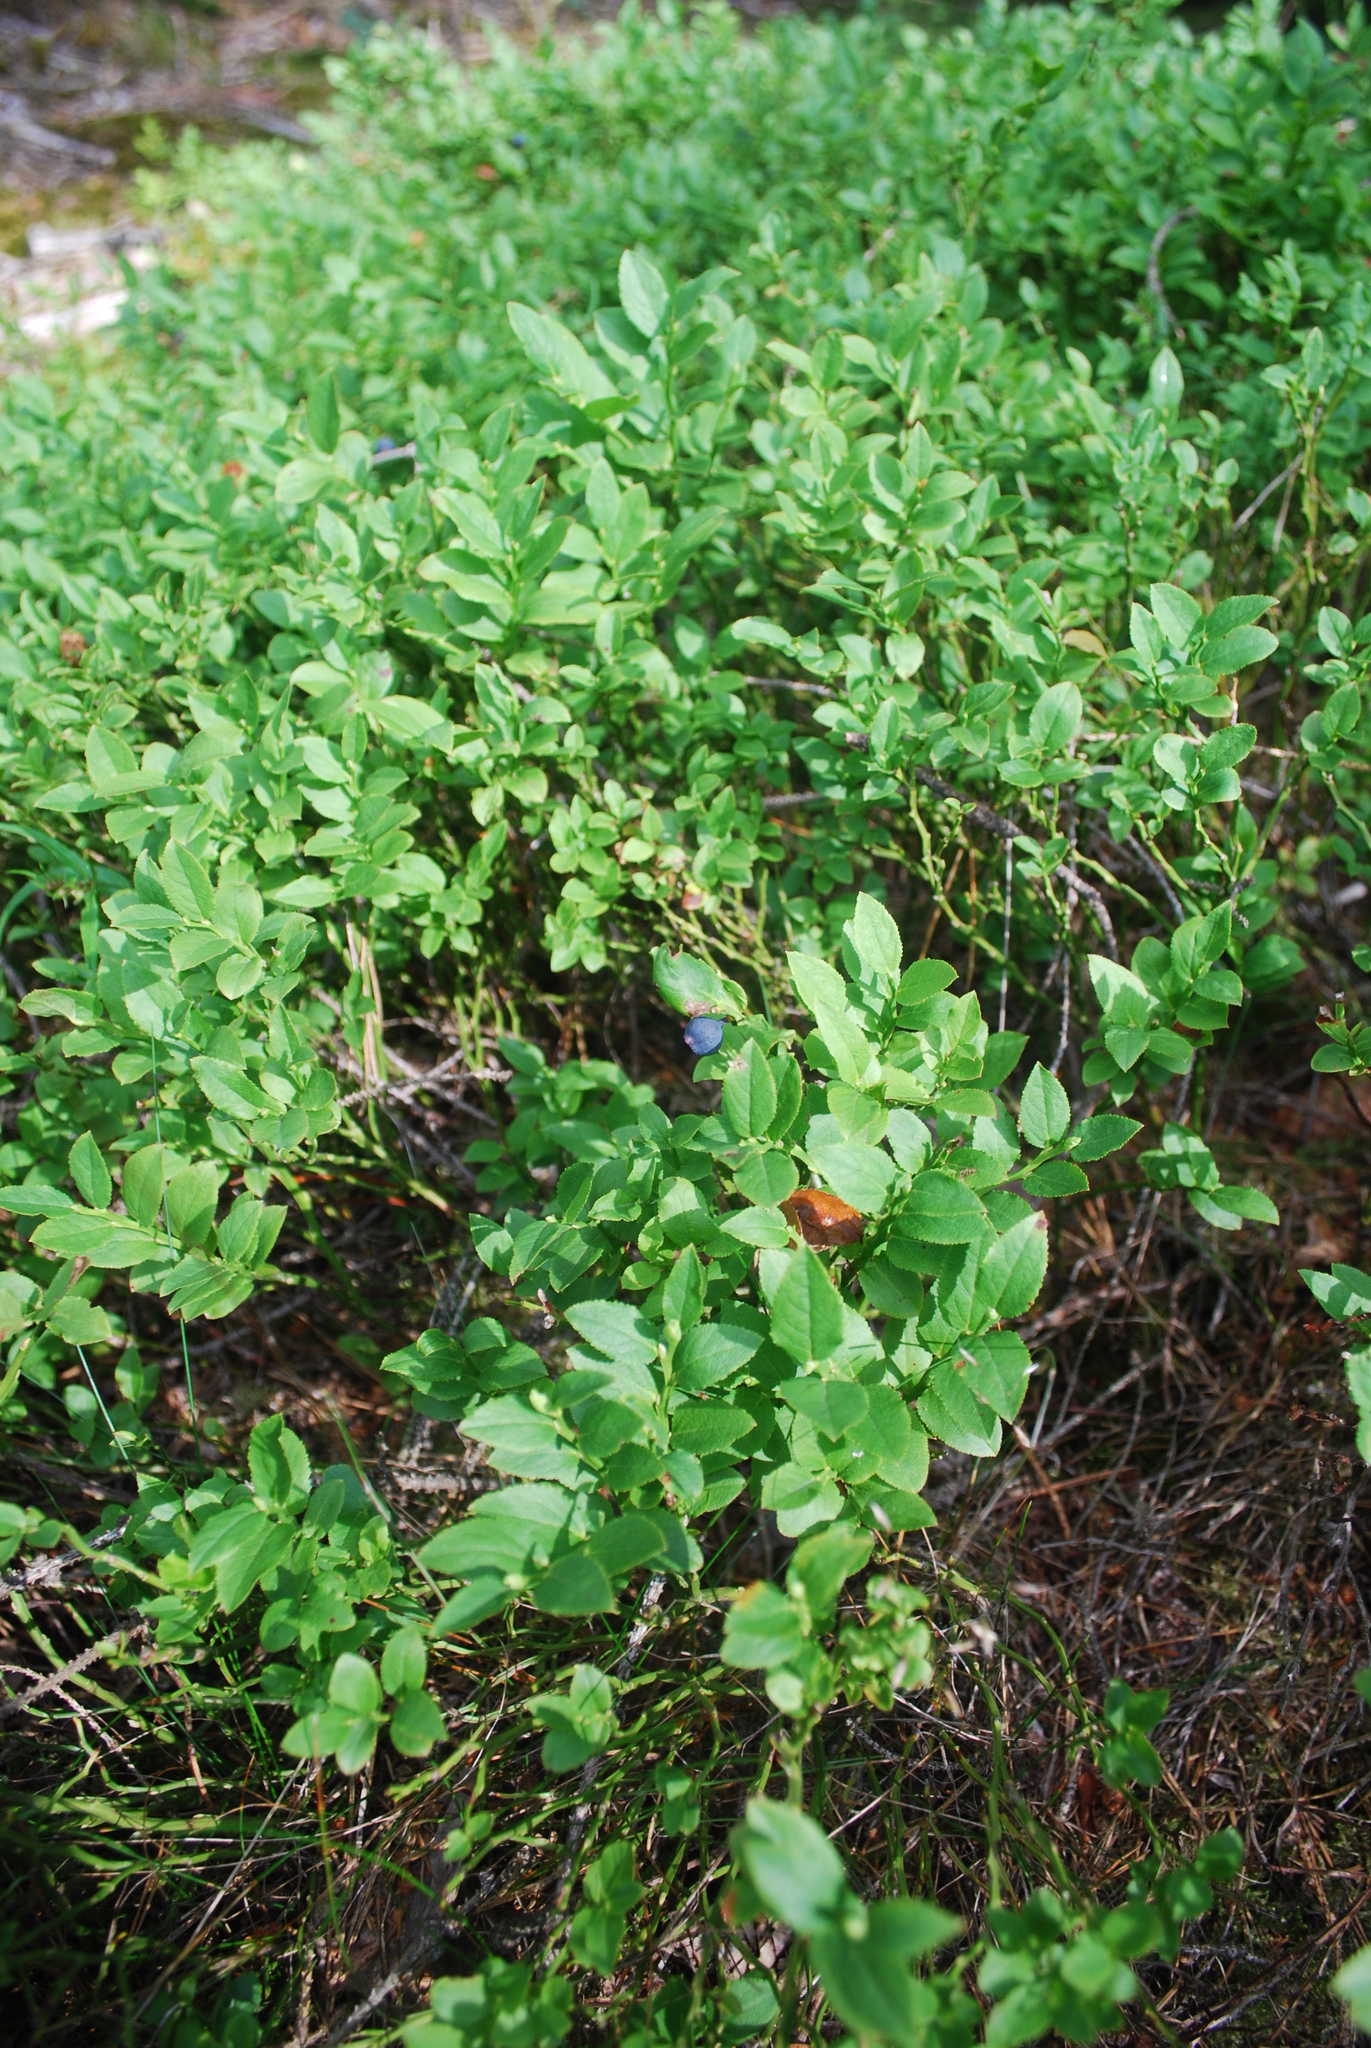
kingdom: Plantae
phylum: Tracheophyta
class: Magnoliopsida
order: Ericales
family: Ericaceae
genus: Vaccinium
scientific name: Vaccinium myrtillus
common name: Bilberry
